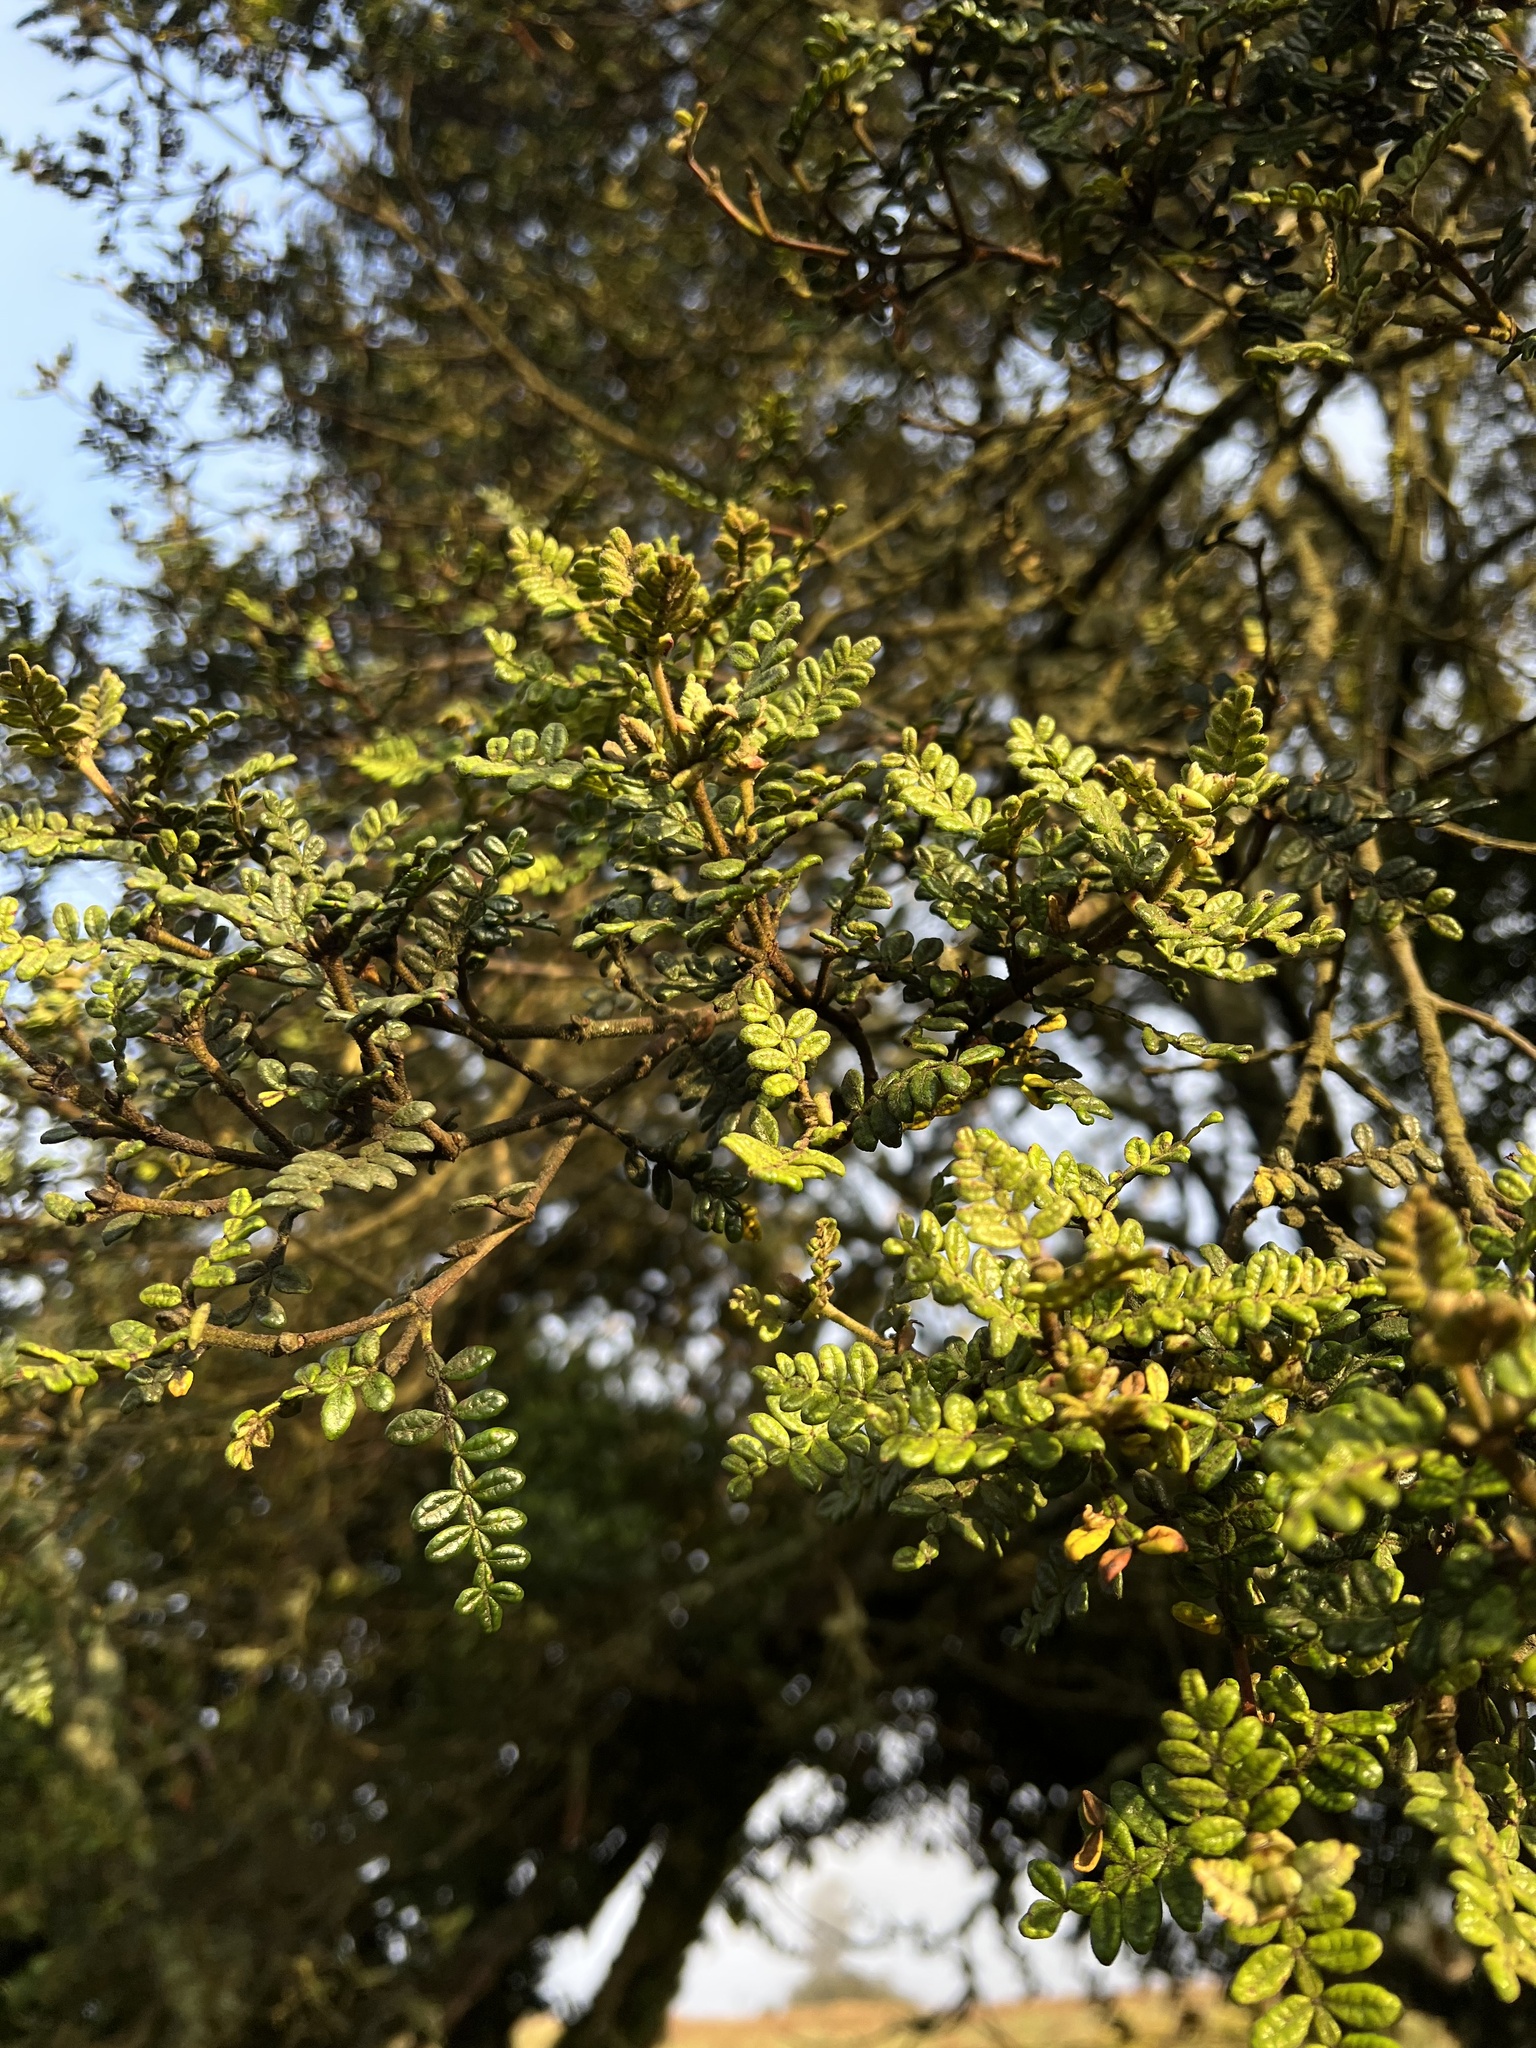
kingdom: Plantae
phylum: Tracheophyta
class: Magnoliopsida
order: Oxalidales
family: Cunoniaceae
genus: Weinmannia
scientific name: Weinmannia tomentosa
